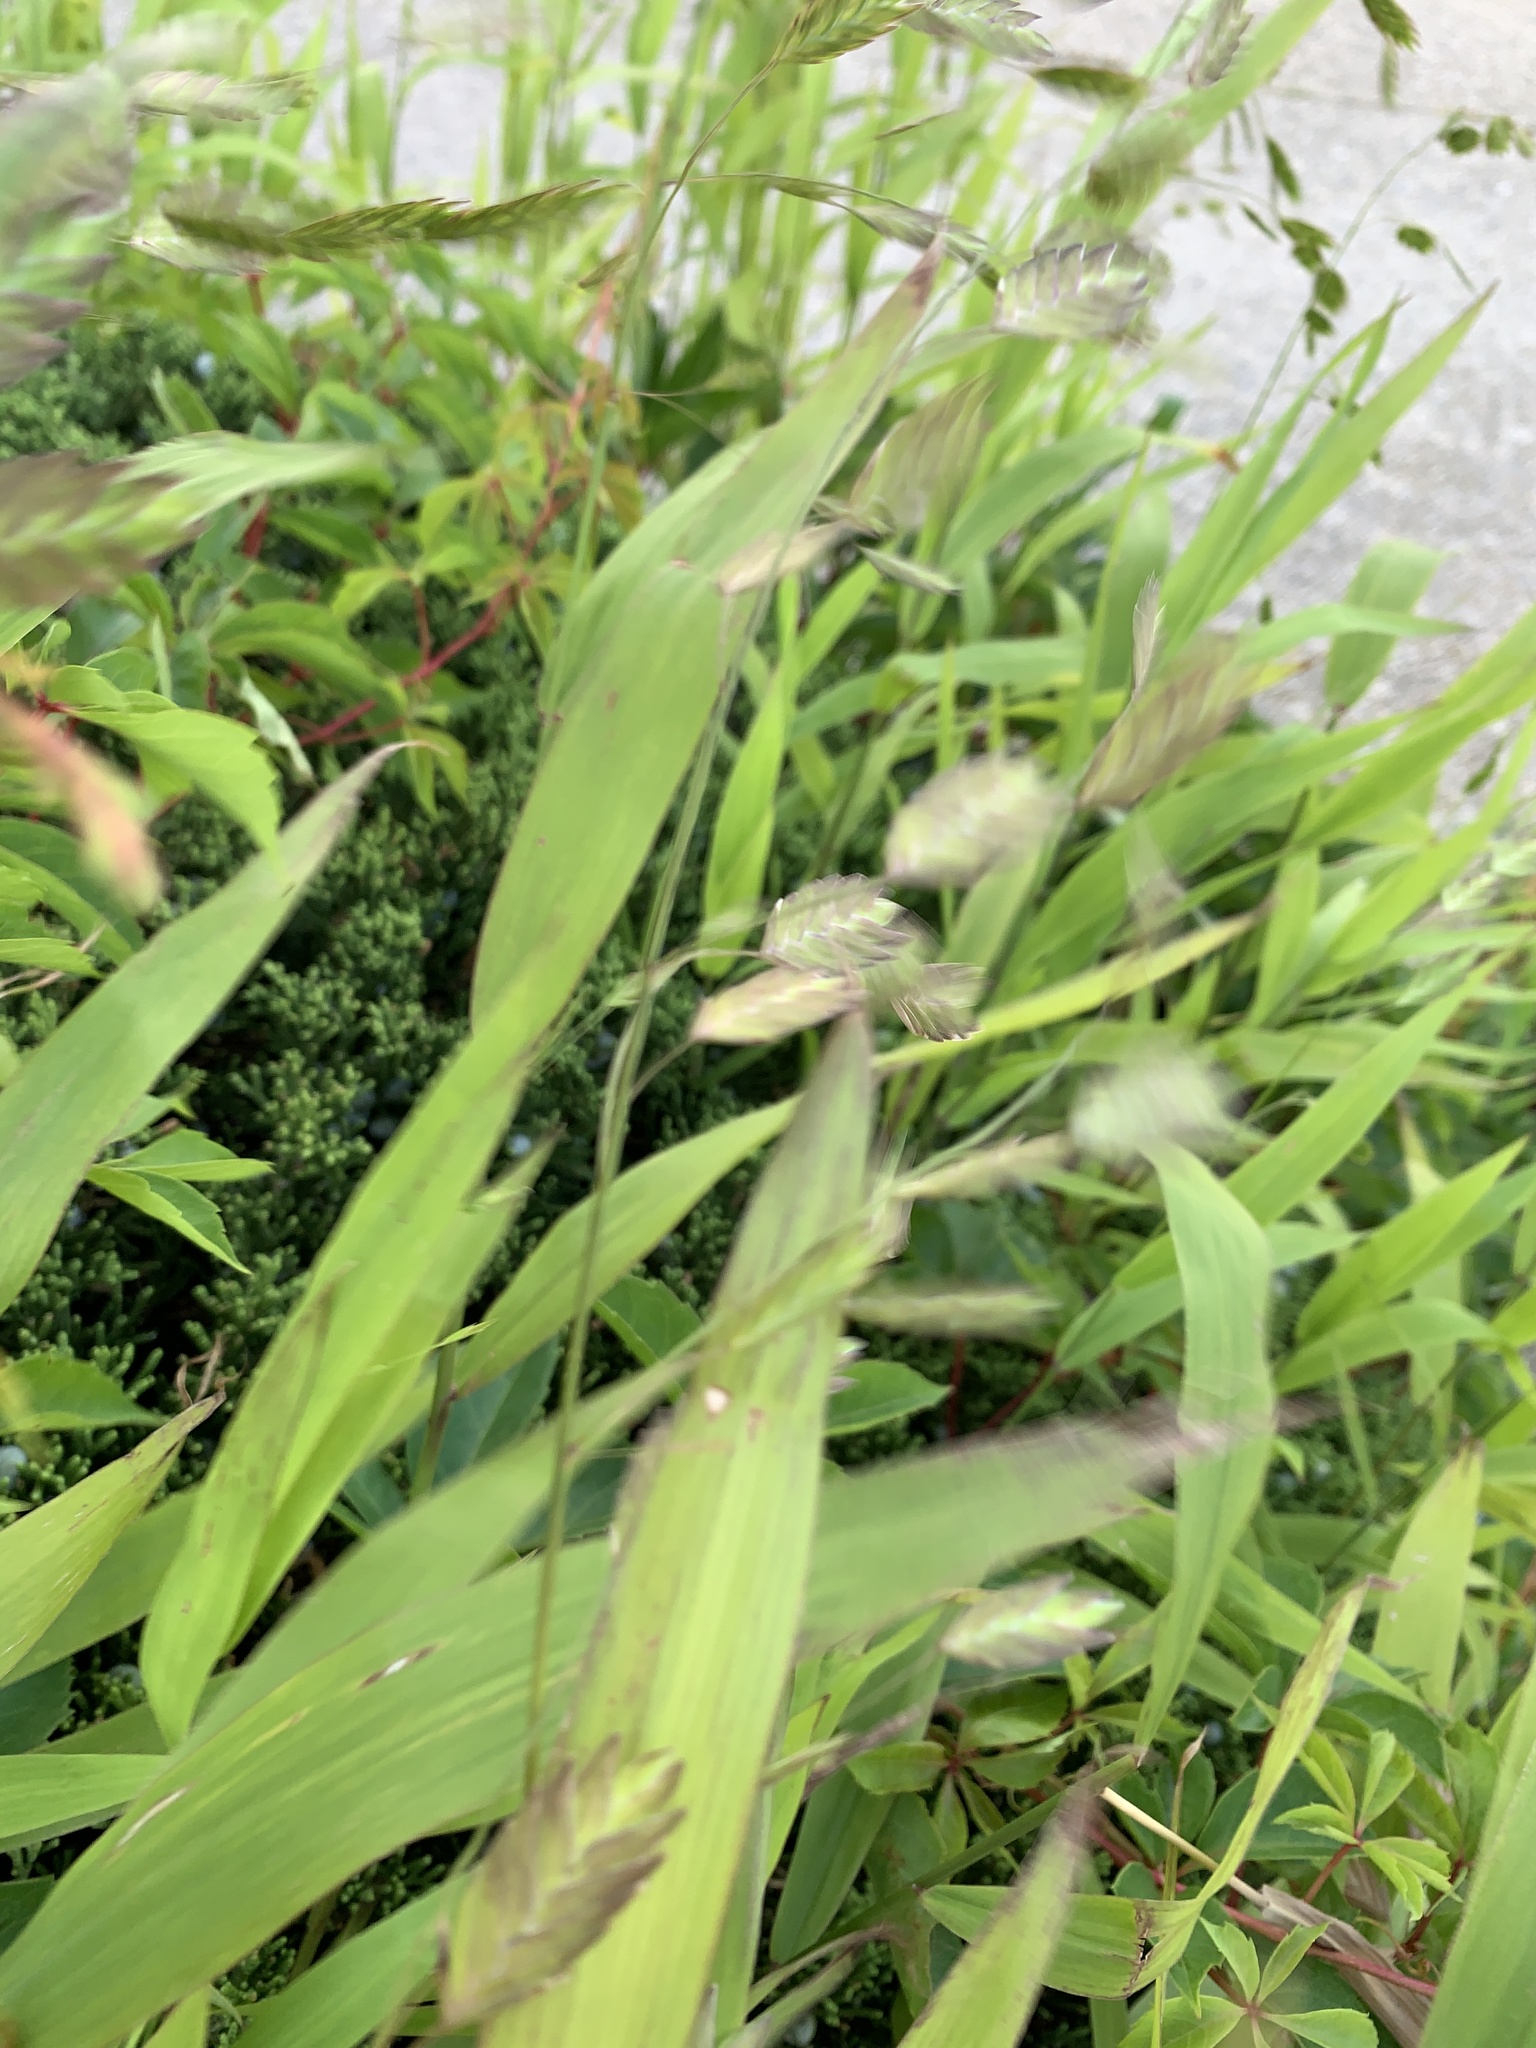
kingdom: Plantae
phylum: Tracheophyta
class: Liliopsida
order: Poales
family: Poaceae
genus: Chasmanthium
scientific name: Chasmanthium latifolium
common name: Broad-leaved chasmanthium
